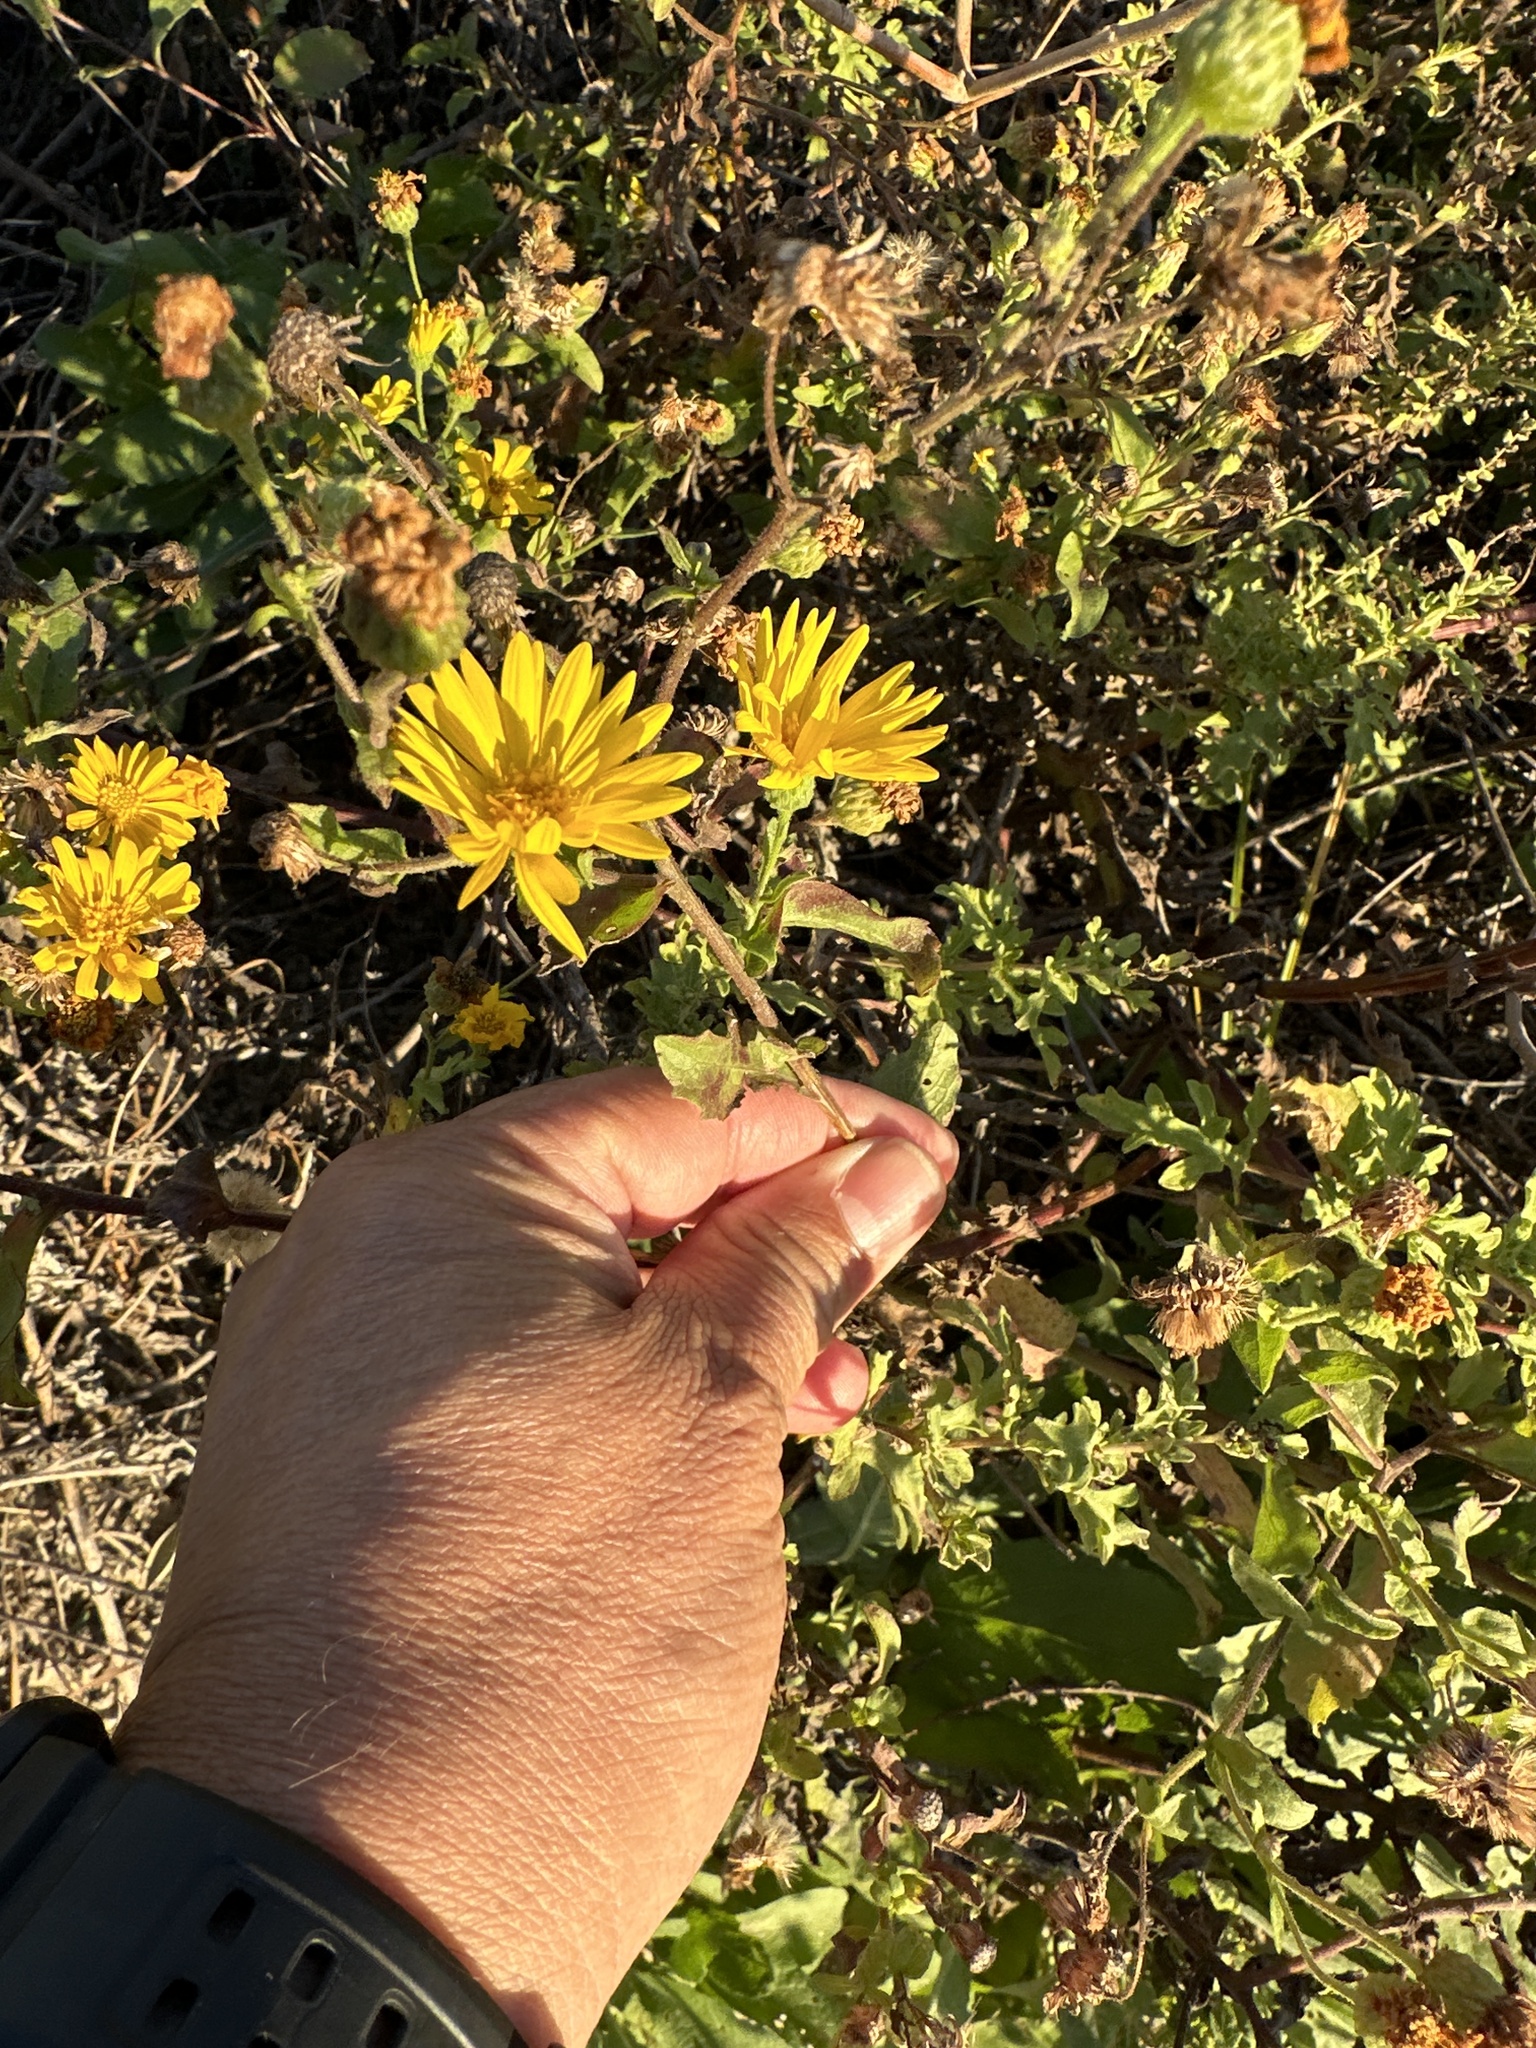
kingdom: Plantae
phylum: Tracheophyta
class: Magnoliopsida
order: Asterales
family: Asteraceae
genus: Heterotheca
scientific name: Heterotheca subaxillaris
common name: Camphorweed
